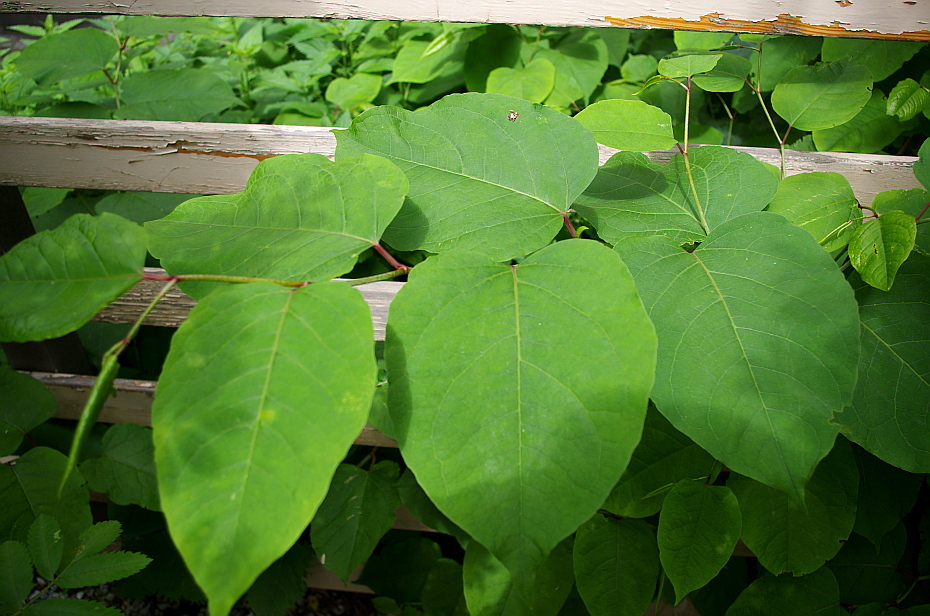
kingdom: Plantae
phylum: Tracheophyta
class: Magnoliopsida
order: Caryophyllales
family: Polygonaceae
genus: Reynoutria
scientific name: Reynoutria bohemica
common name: Bohemian knotweed
